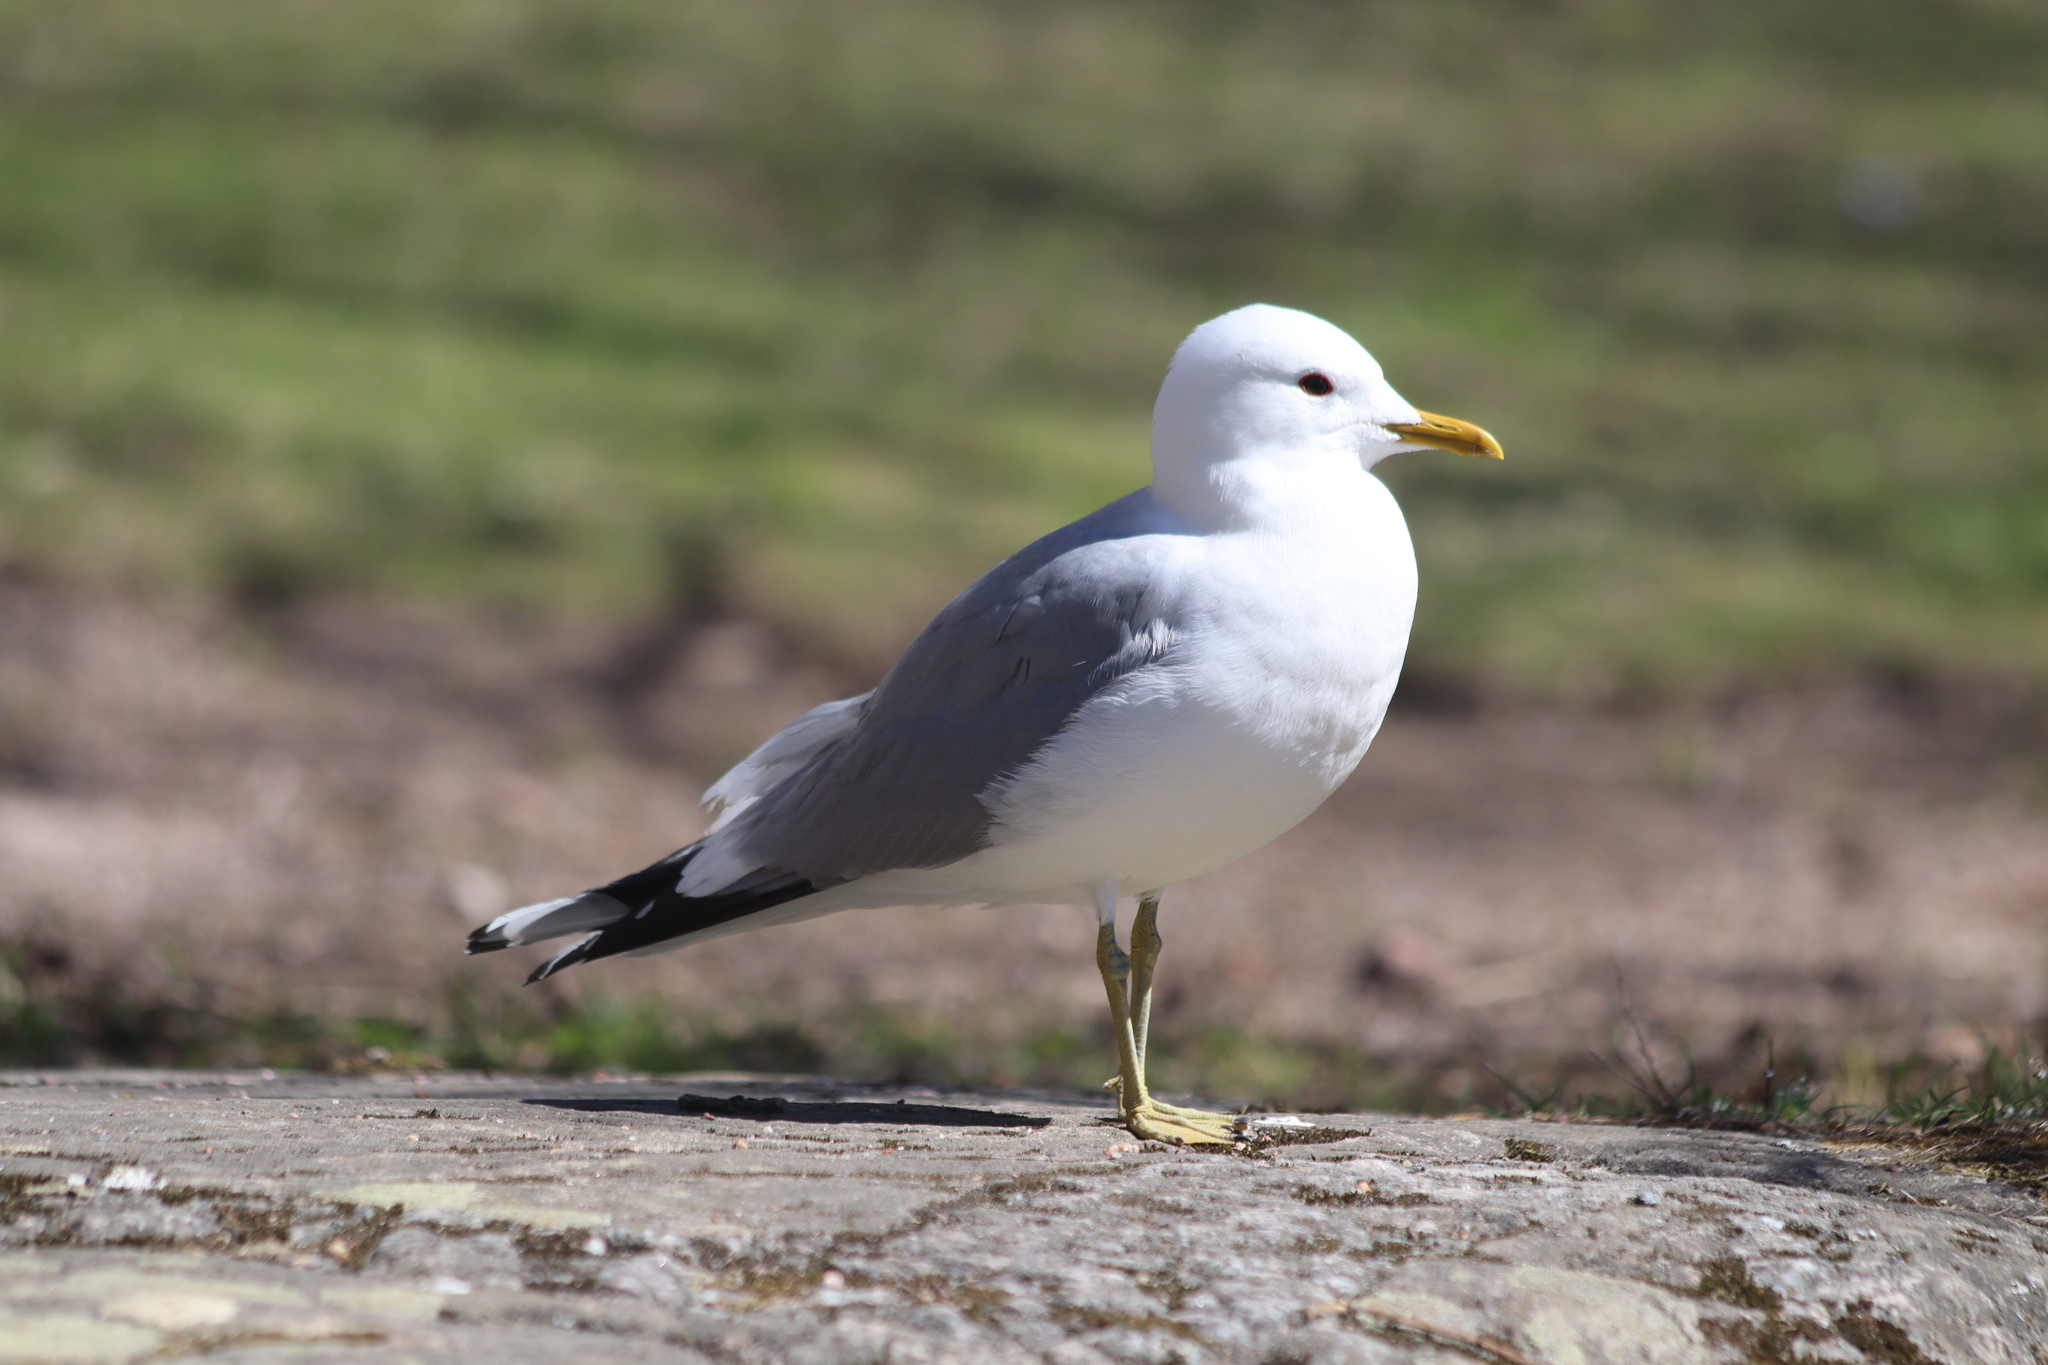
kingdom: Animalia
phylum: Chordata
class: Aves
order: Charadriiformes
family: Laridae
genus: Larus
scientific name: Larus canus
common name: Mew gull
